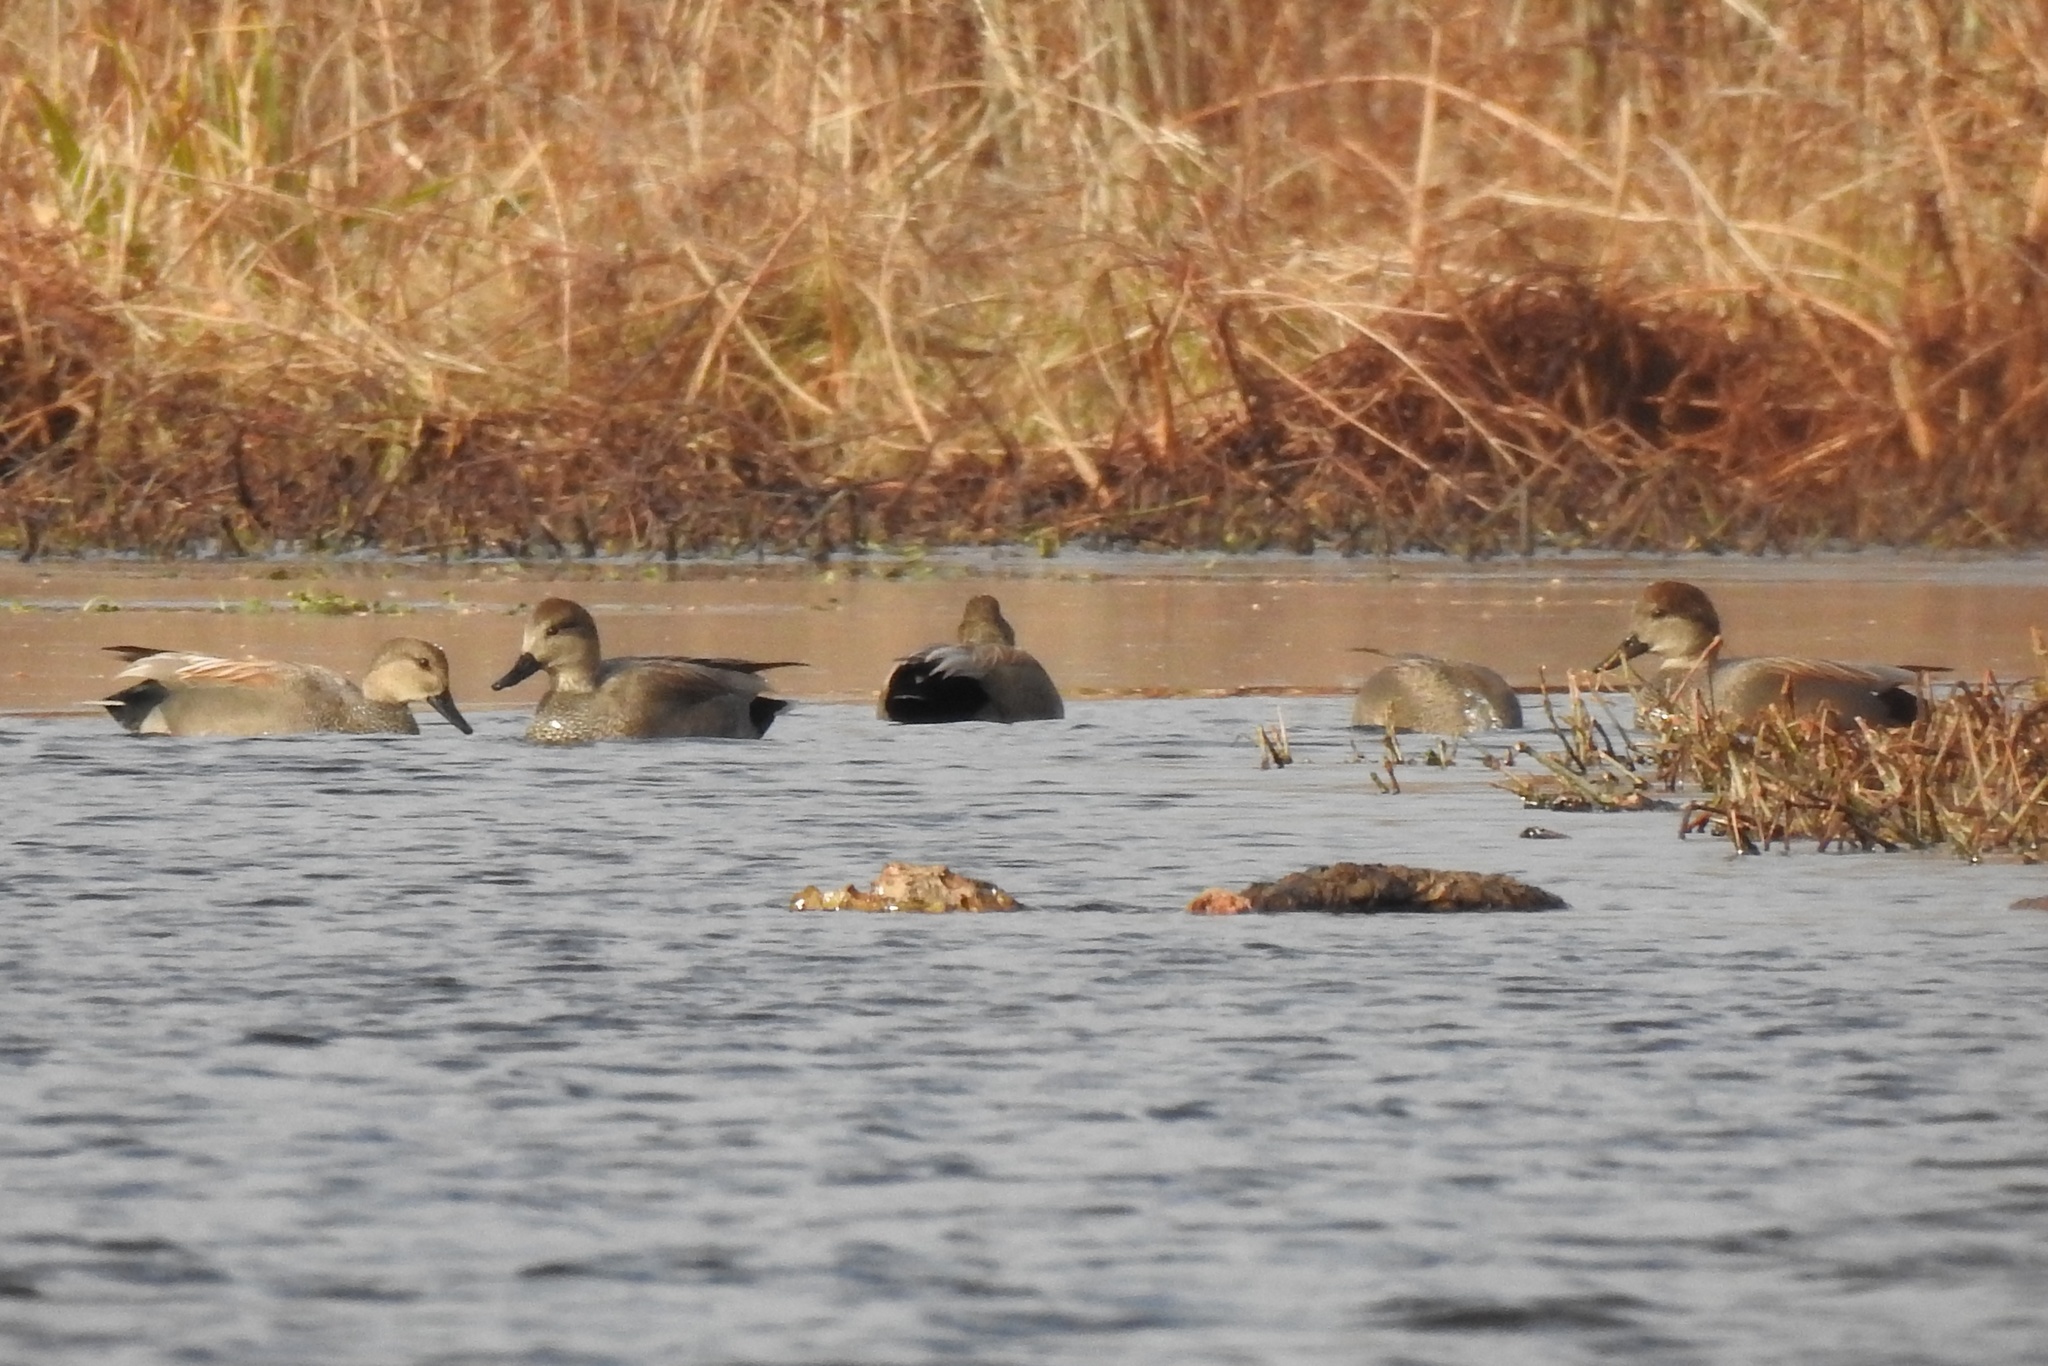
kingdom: Animalia
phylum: Chordata
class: Aves
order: Anseriformes
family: Anatidae
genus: Mareca
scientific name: Mareca strepera
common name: Gadwall
